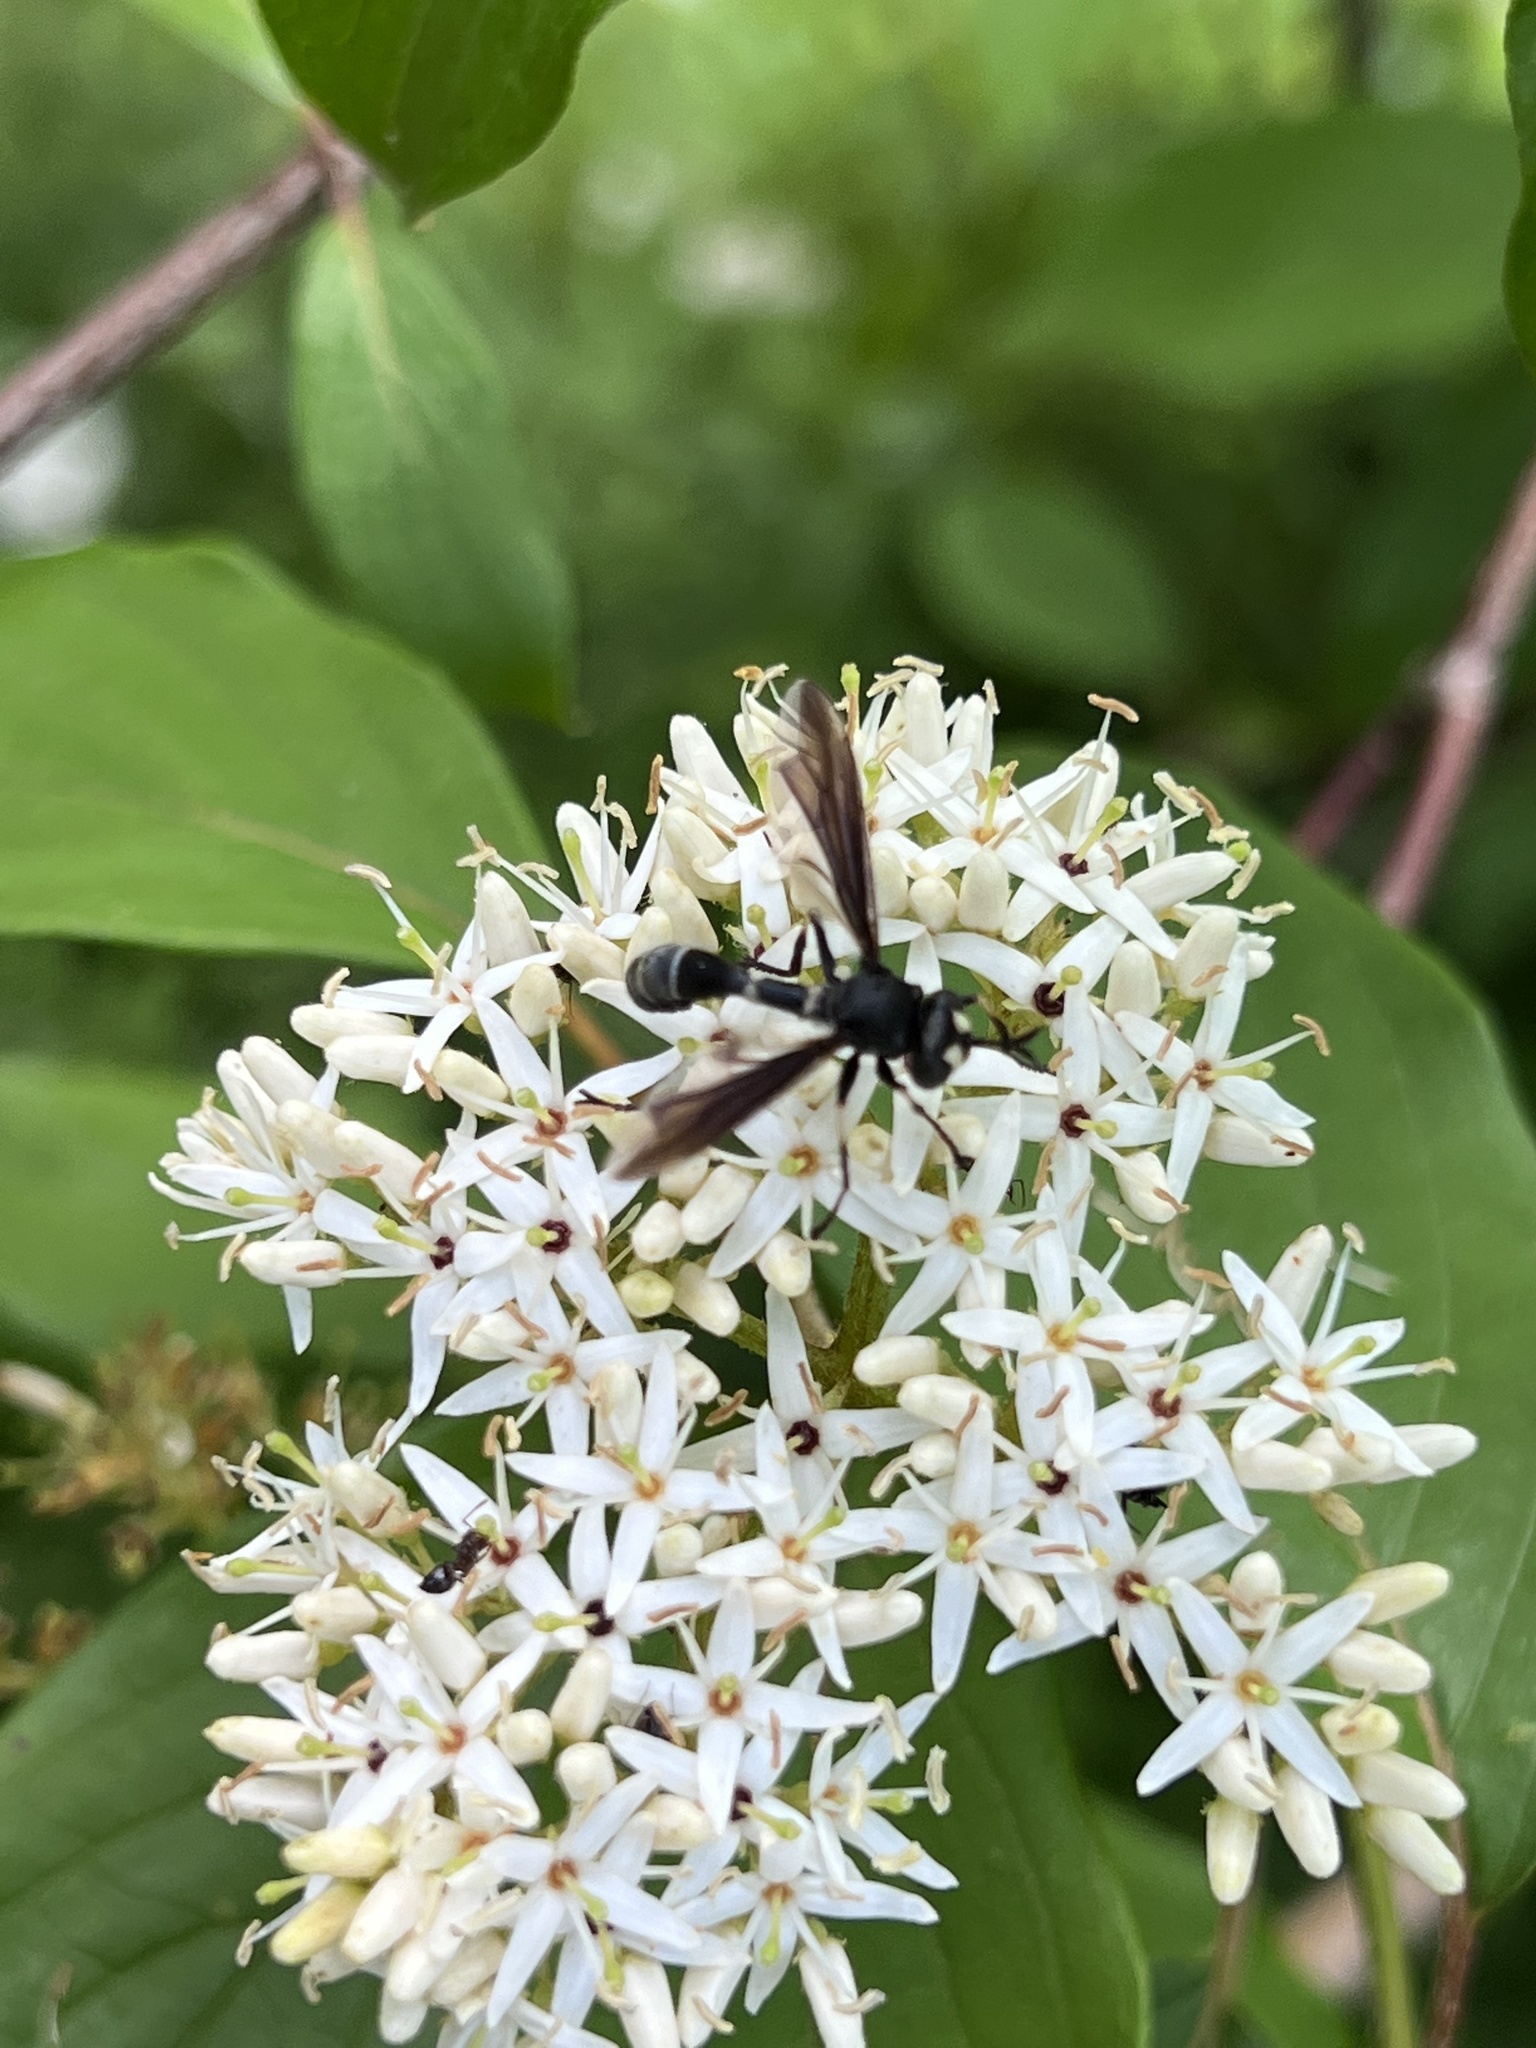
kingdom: Animalia
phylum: Arthropoda
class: Insecta
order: Diptera
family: Conopidae
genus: Physocephala
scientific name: Physocephala tibialis
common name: Common eastern physocephala
